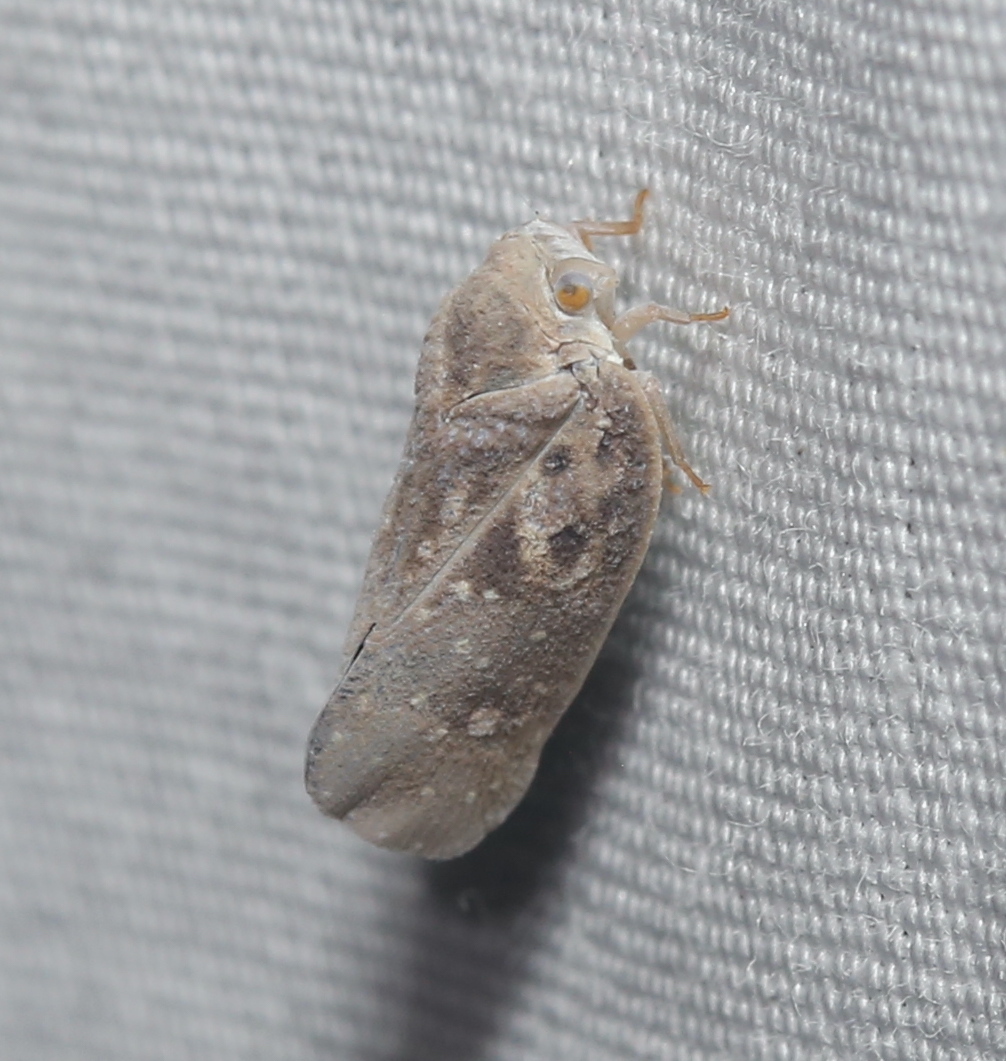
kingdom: Animalia
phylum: Arthropoda
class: Insecta
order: Hemiptera
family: Flatidae
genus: Metcalfa
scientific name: Metcalfa pruinosa
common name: Citrus flatid planthopper
